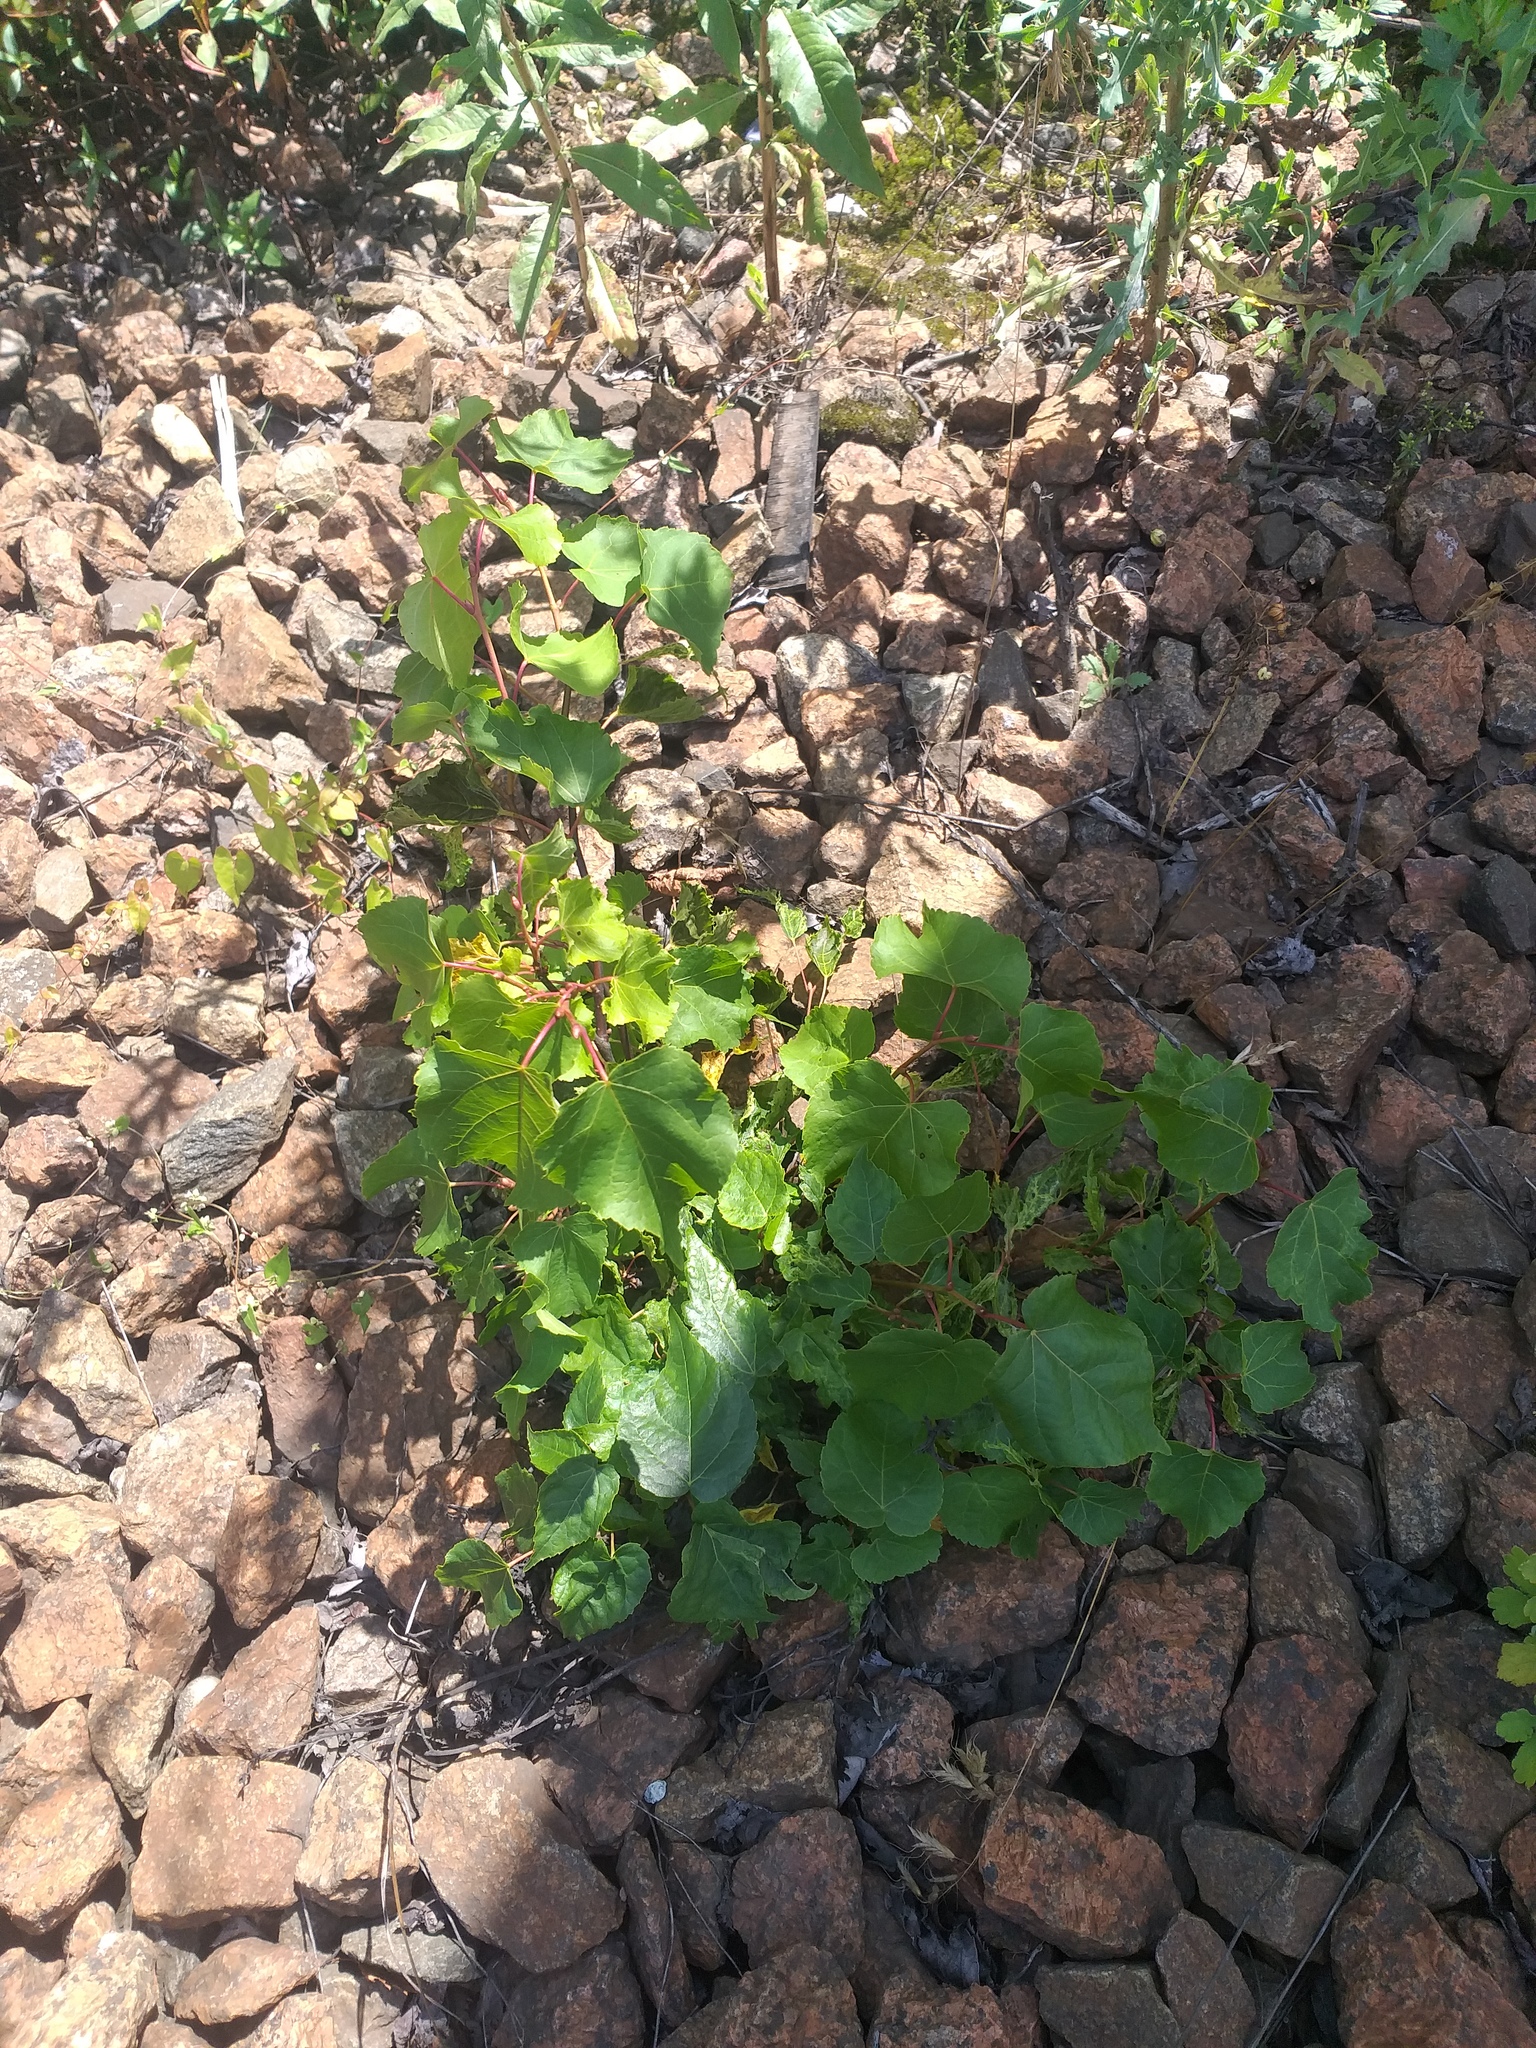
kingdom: Plantae
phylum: Tracheophyta
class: Magnoliopsida
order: Malvales
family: Malvaceae
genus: Tilia
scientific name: Tilia cordata
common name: Small-leaved lime
